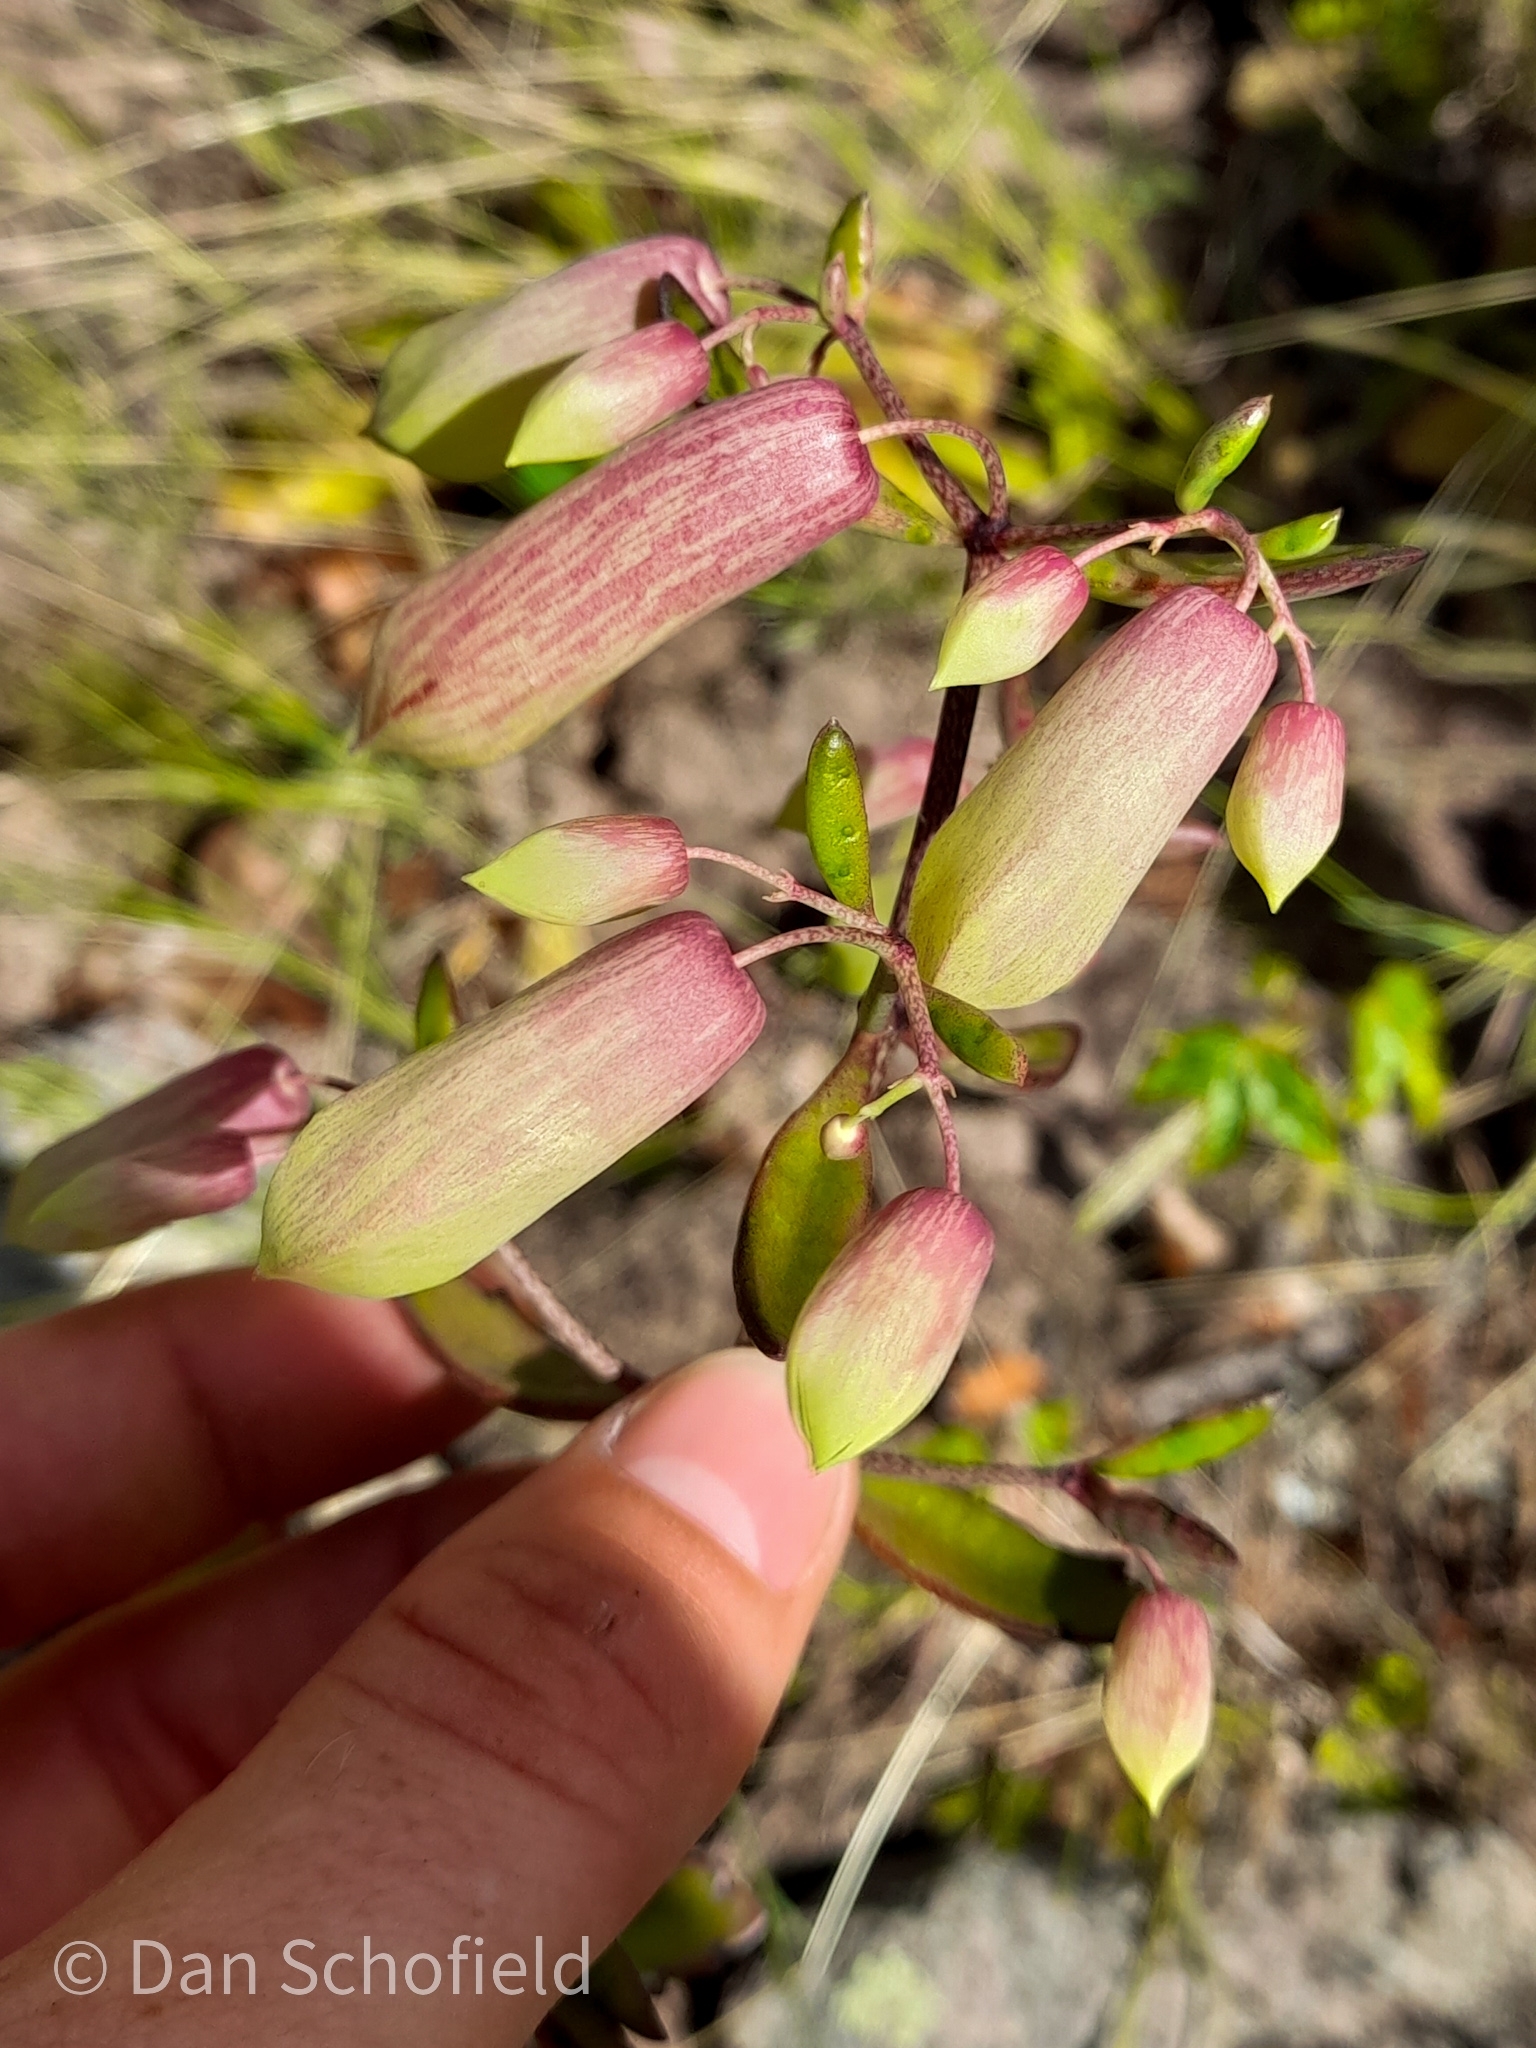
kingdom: Plantae
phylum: Tracheophyta
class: Magnoliopsida
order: Saxifragales
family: Crassulaceae
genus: Kalanchoe
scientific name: Kalanchoe pinnata
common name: Cathedral bells
